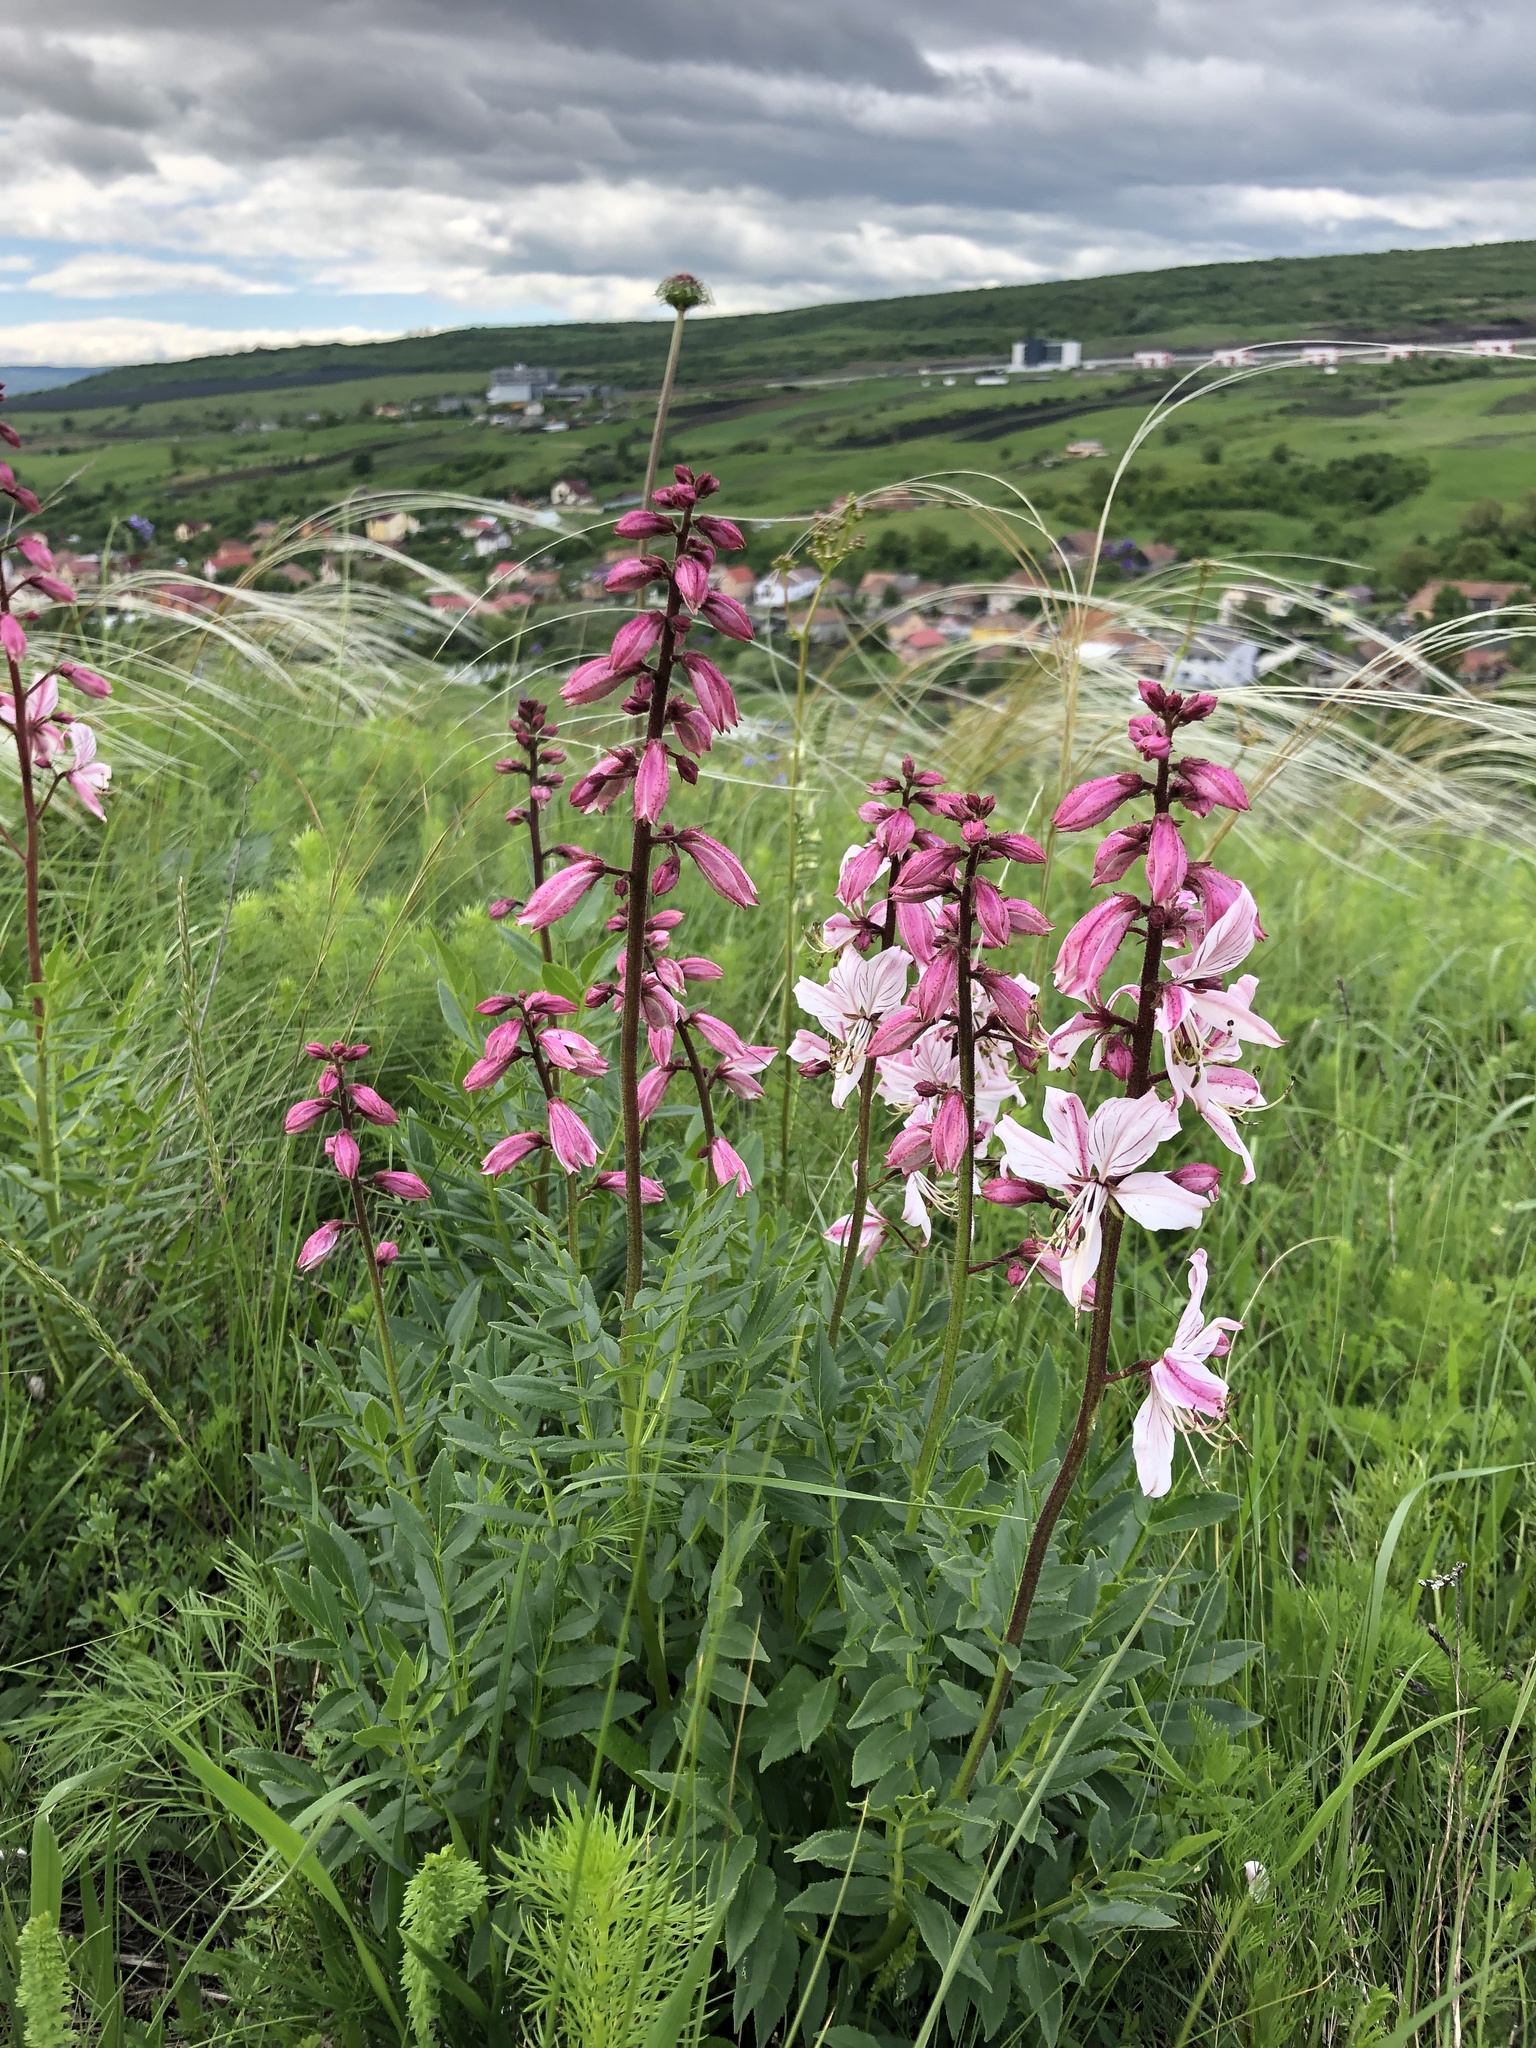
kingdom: Plantae
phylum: Tracheophyta
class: Magnoliopsida
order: Sapindales
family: Rutaceae
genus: Dictamnus
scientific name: Dictamnus albus
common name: Gasplant
